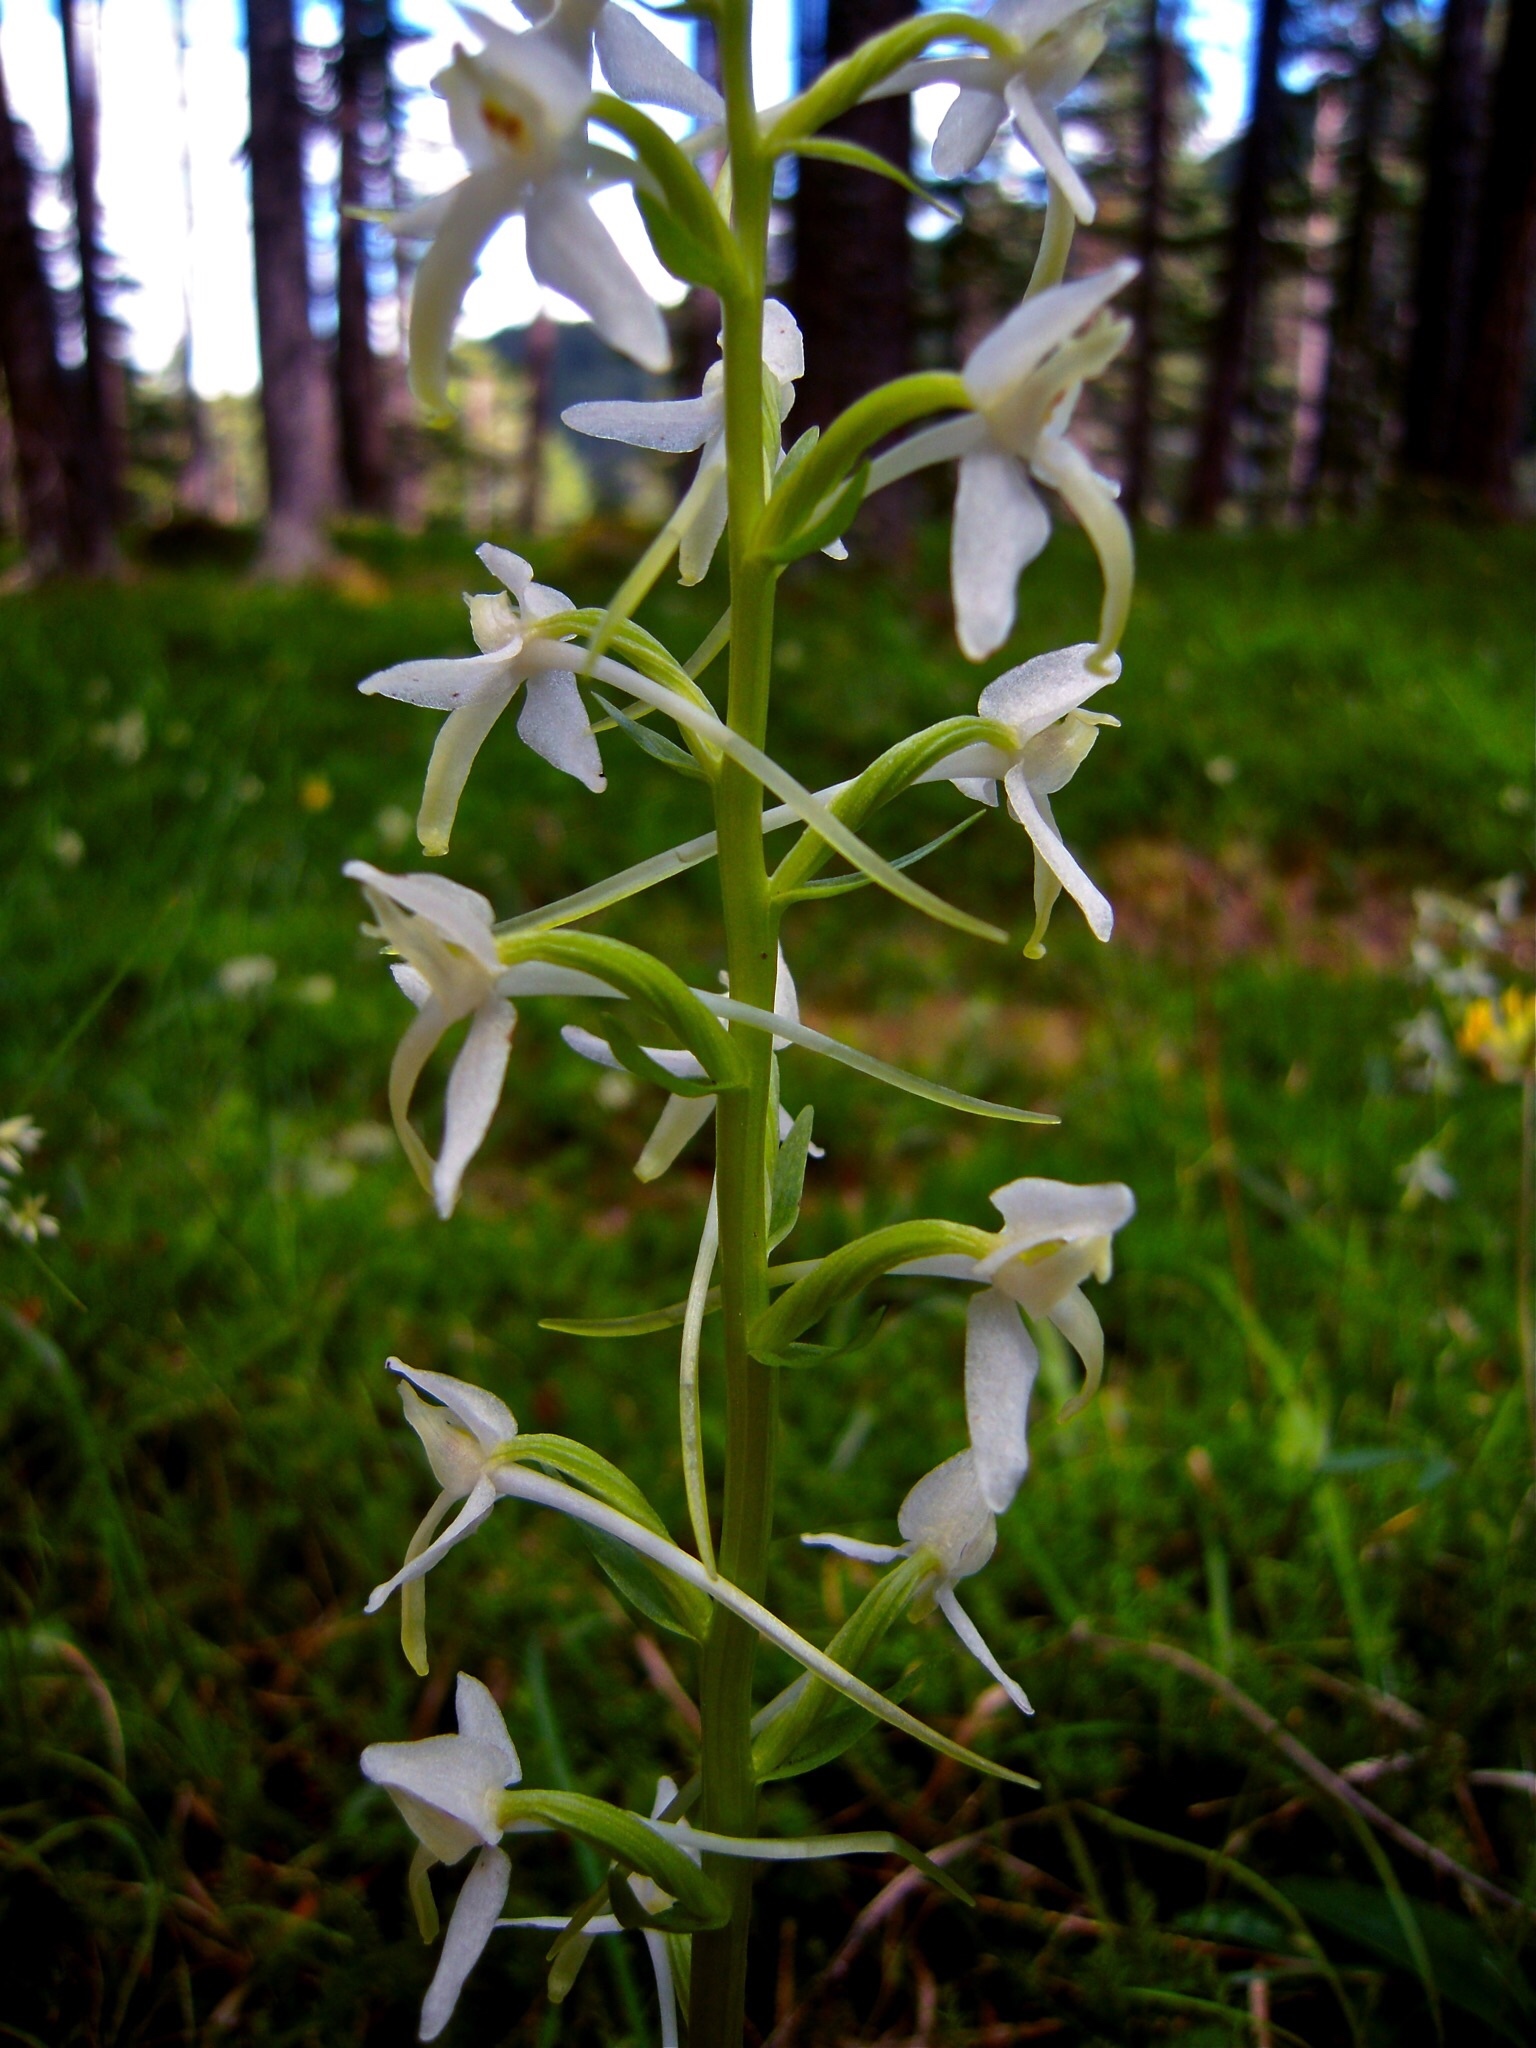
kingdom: Plantae
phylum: Tracheophyta
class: Liliopsida
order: Asparagales
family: Orchidaceae
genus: Platanthera
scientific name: Platanthera bifolia
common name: Lesser butterfly-orchid
